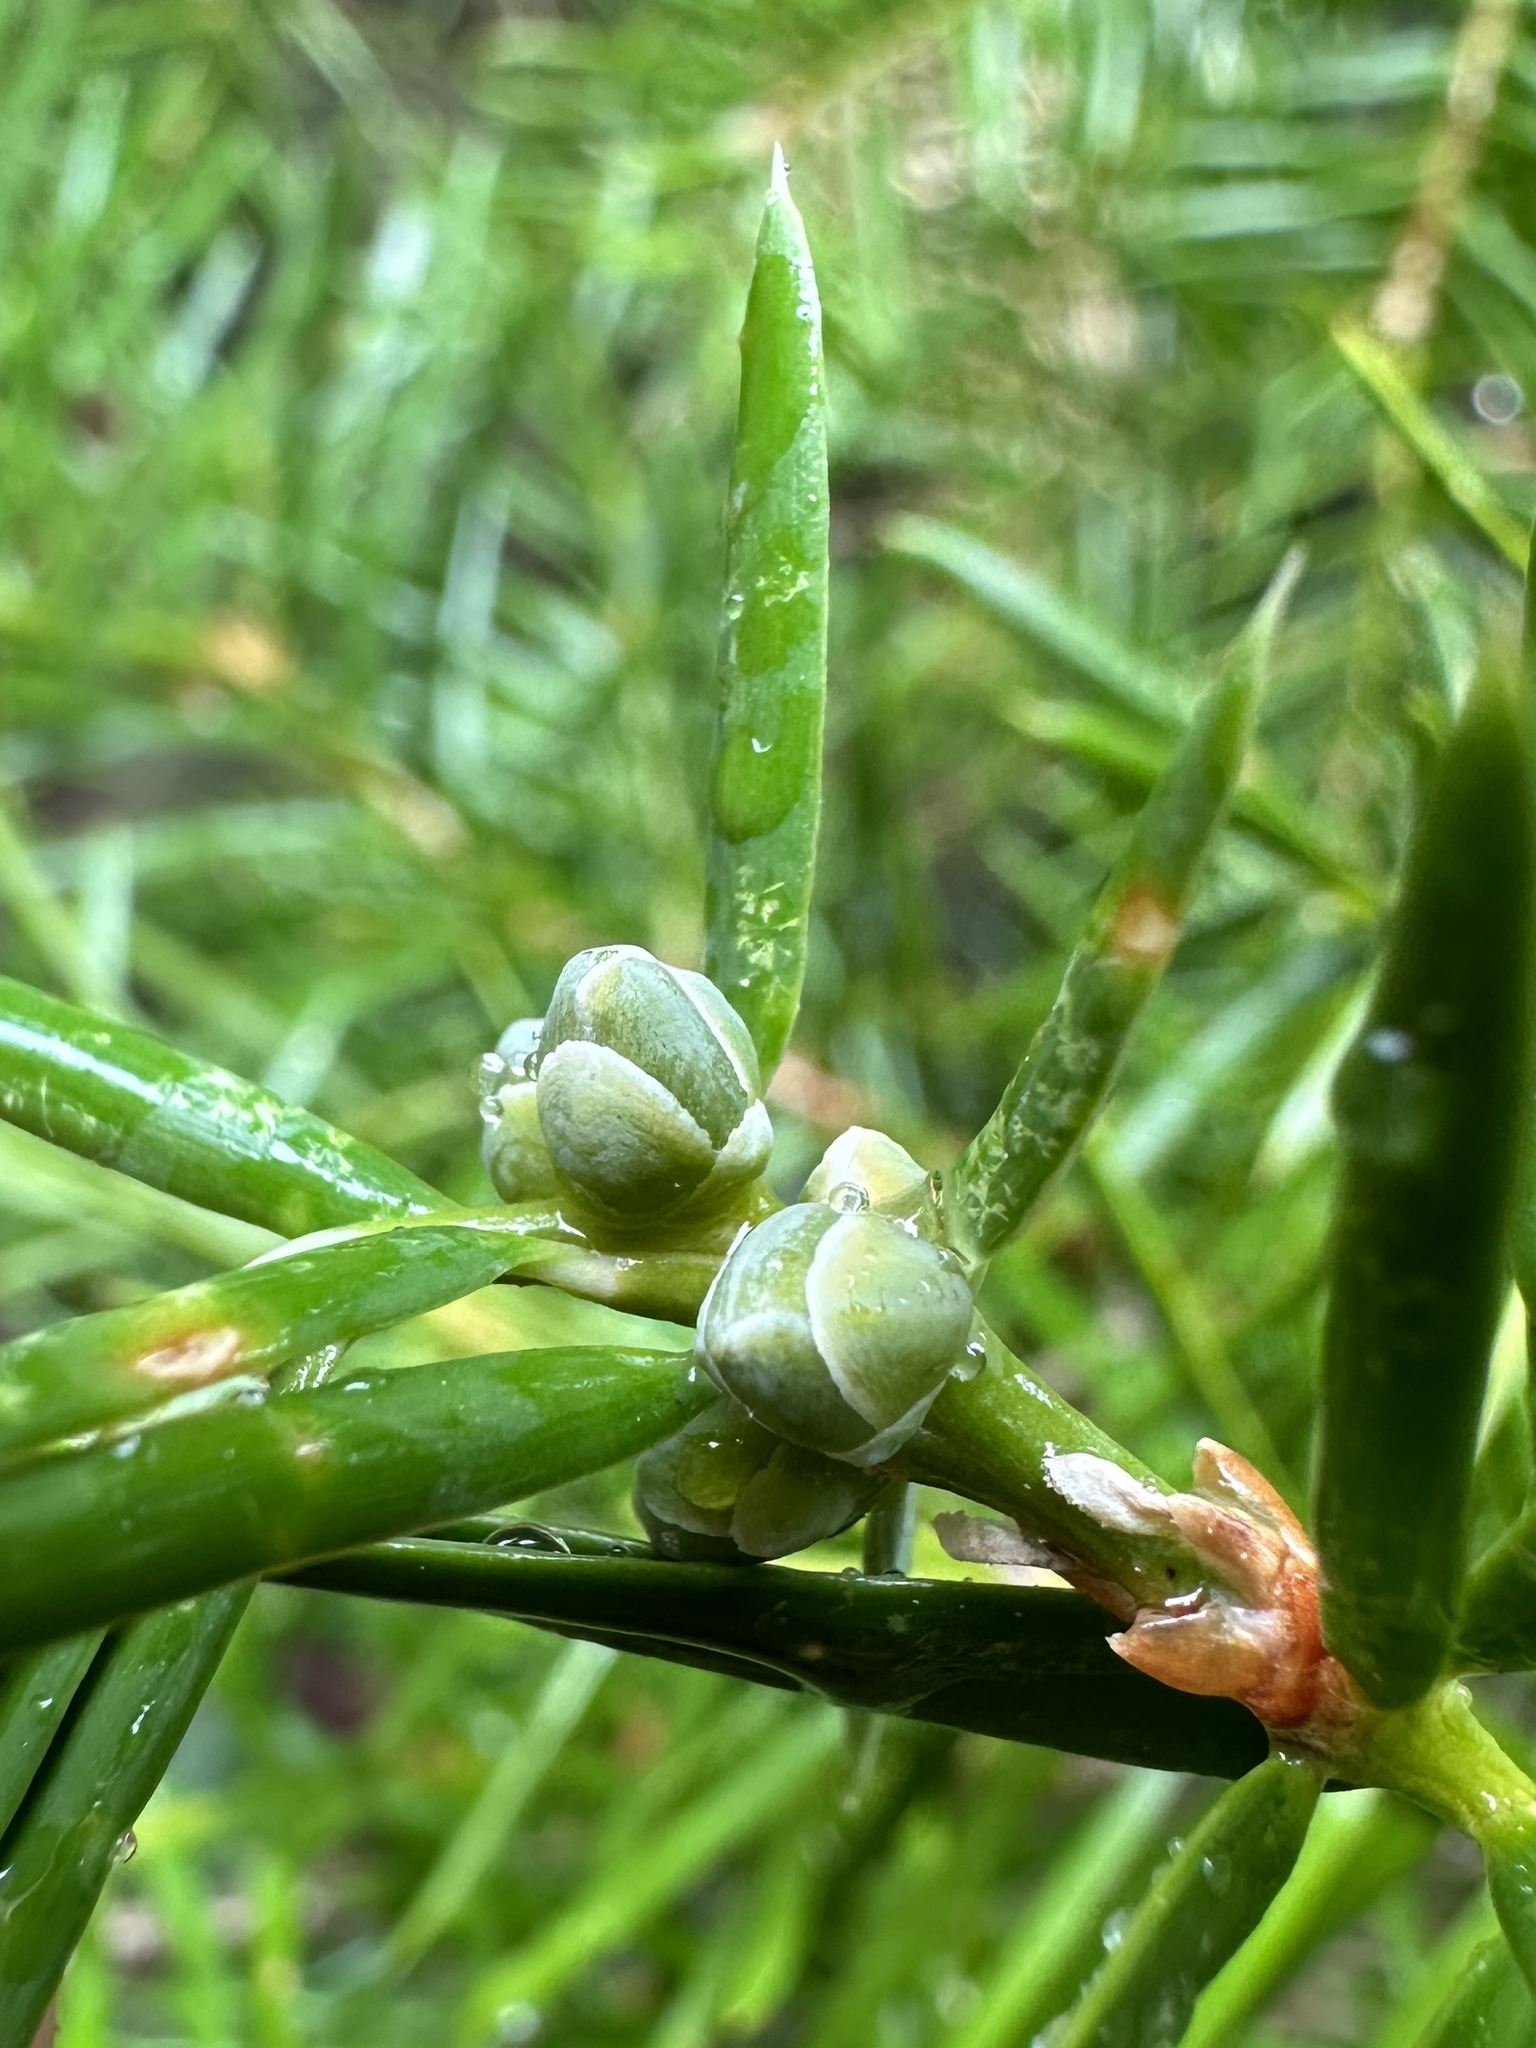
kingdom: Plantae
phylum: Tracheophyta
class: Pinopsida
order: Pinales
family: Taxaceae
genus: Torreya
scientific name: Torreya californica
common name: California torreya
